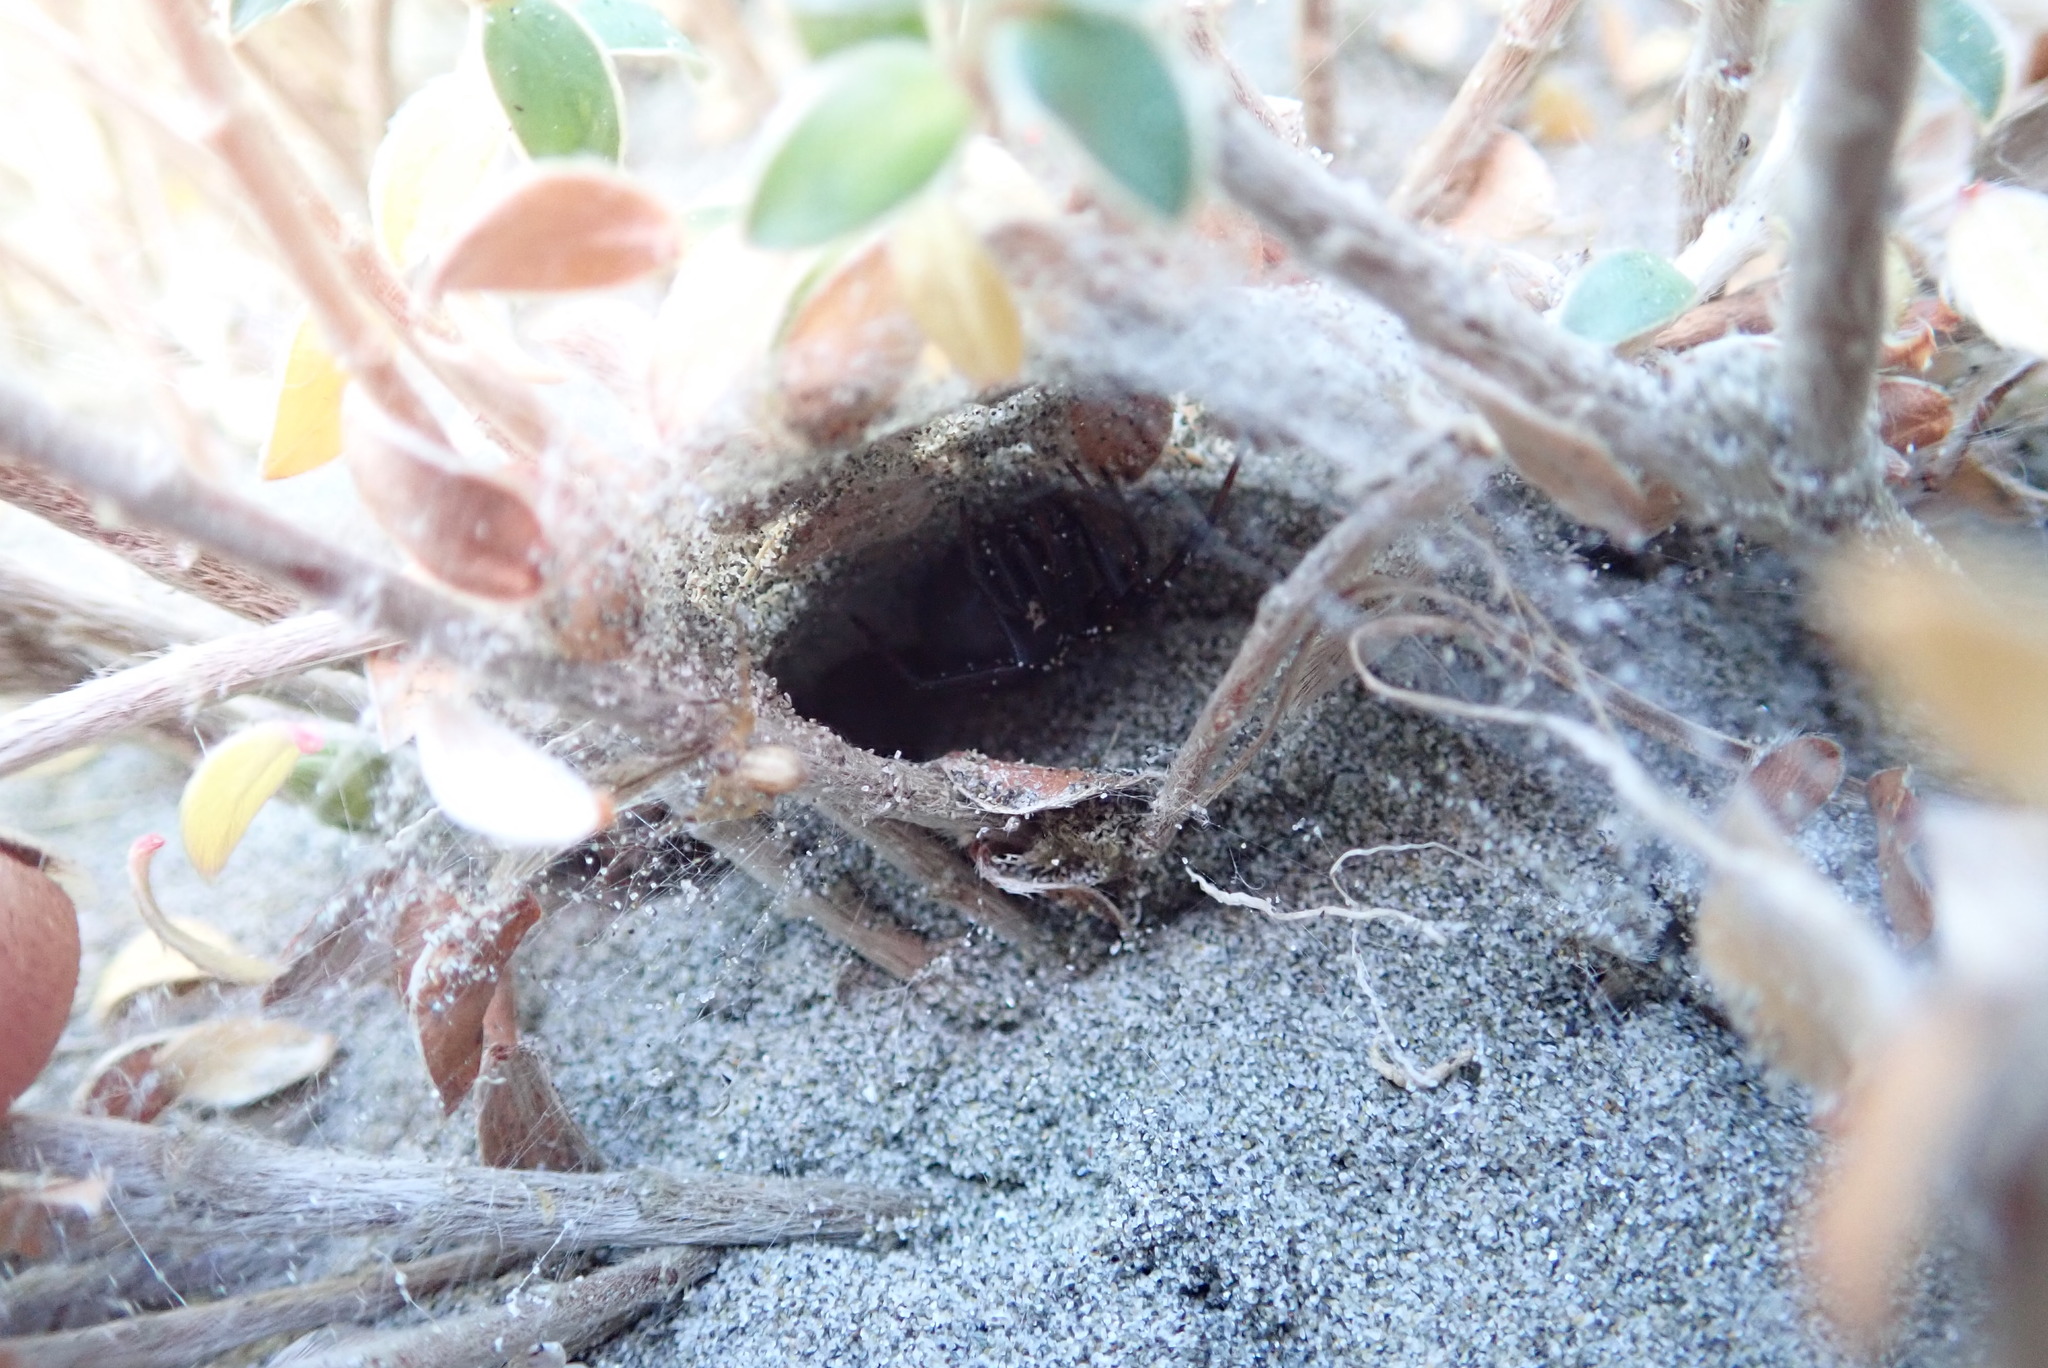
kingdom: Animalia
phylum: Arthropoda
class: Arachnida
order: Araneae
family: Theridiidae
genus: Latrodectus
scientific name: Latrodectus katipo
